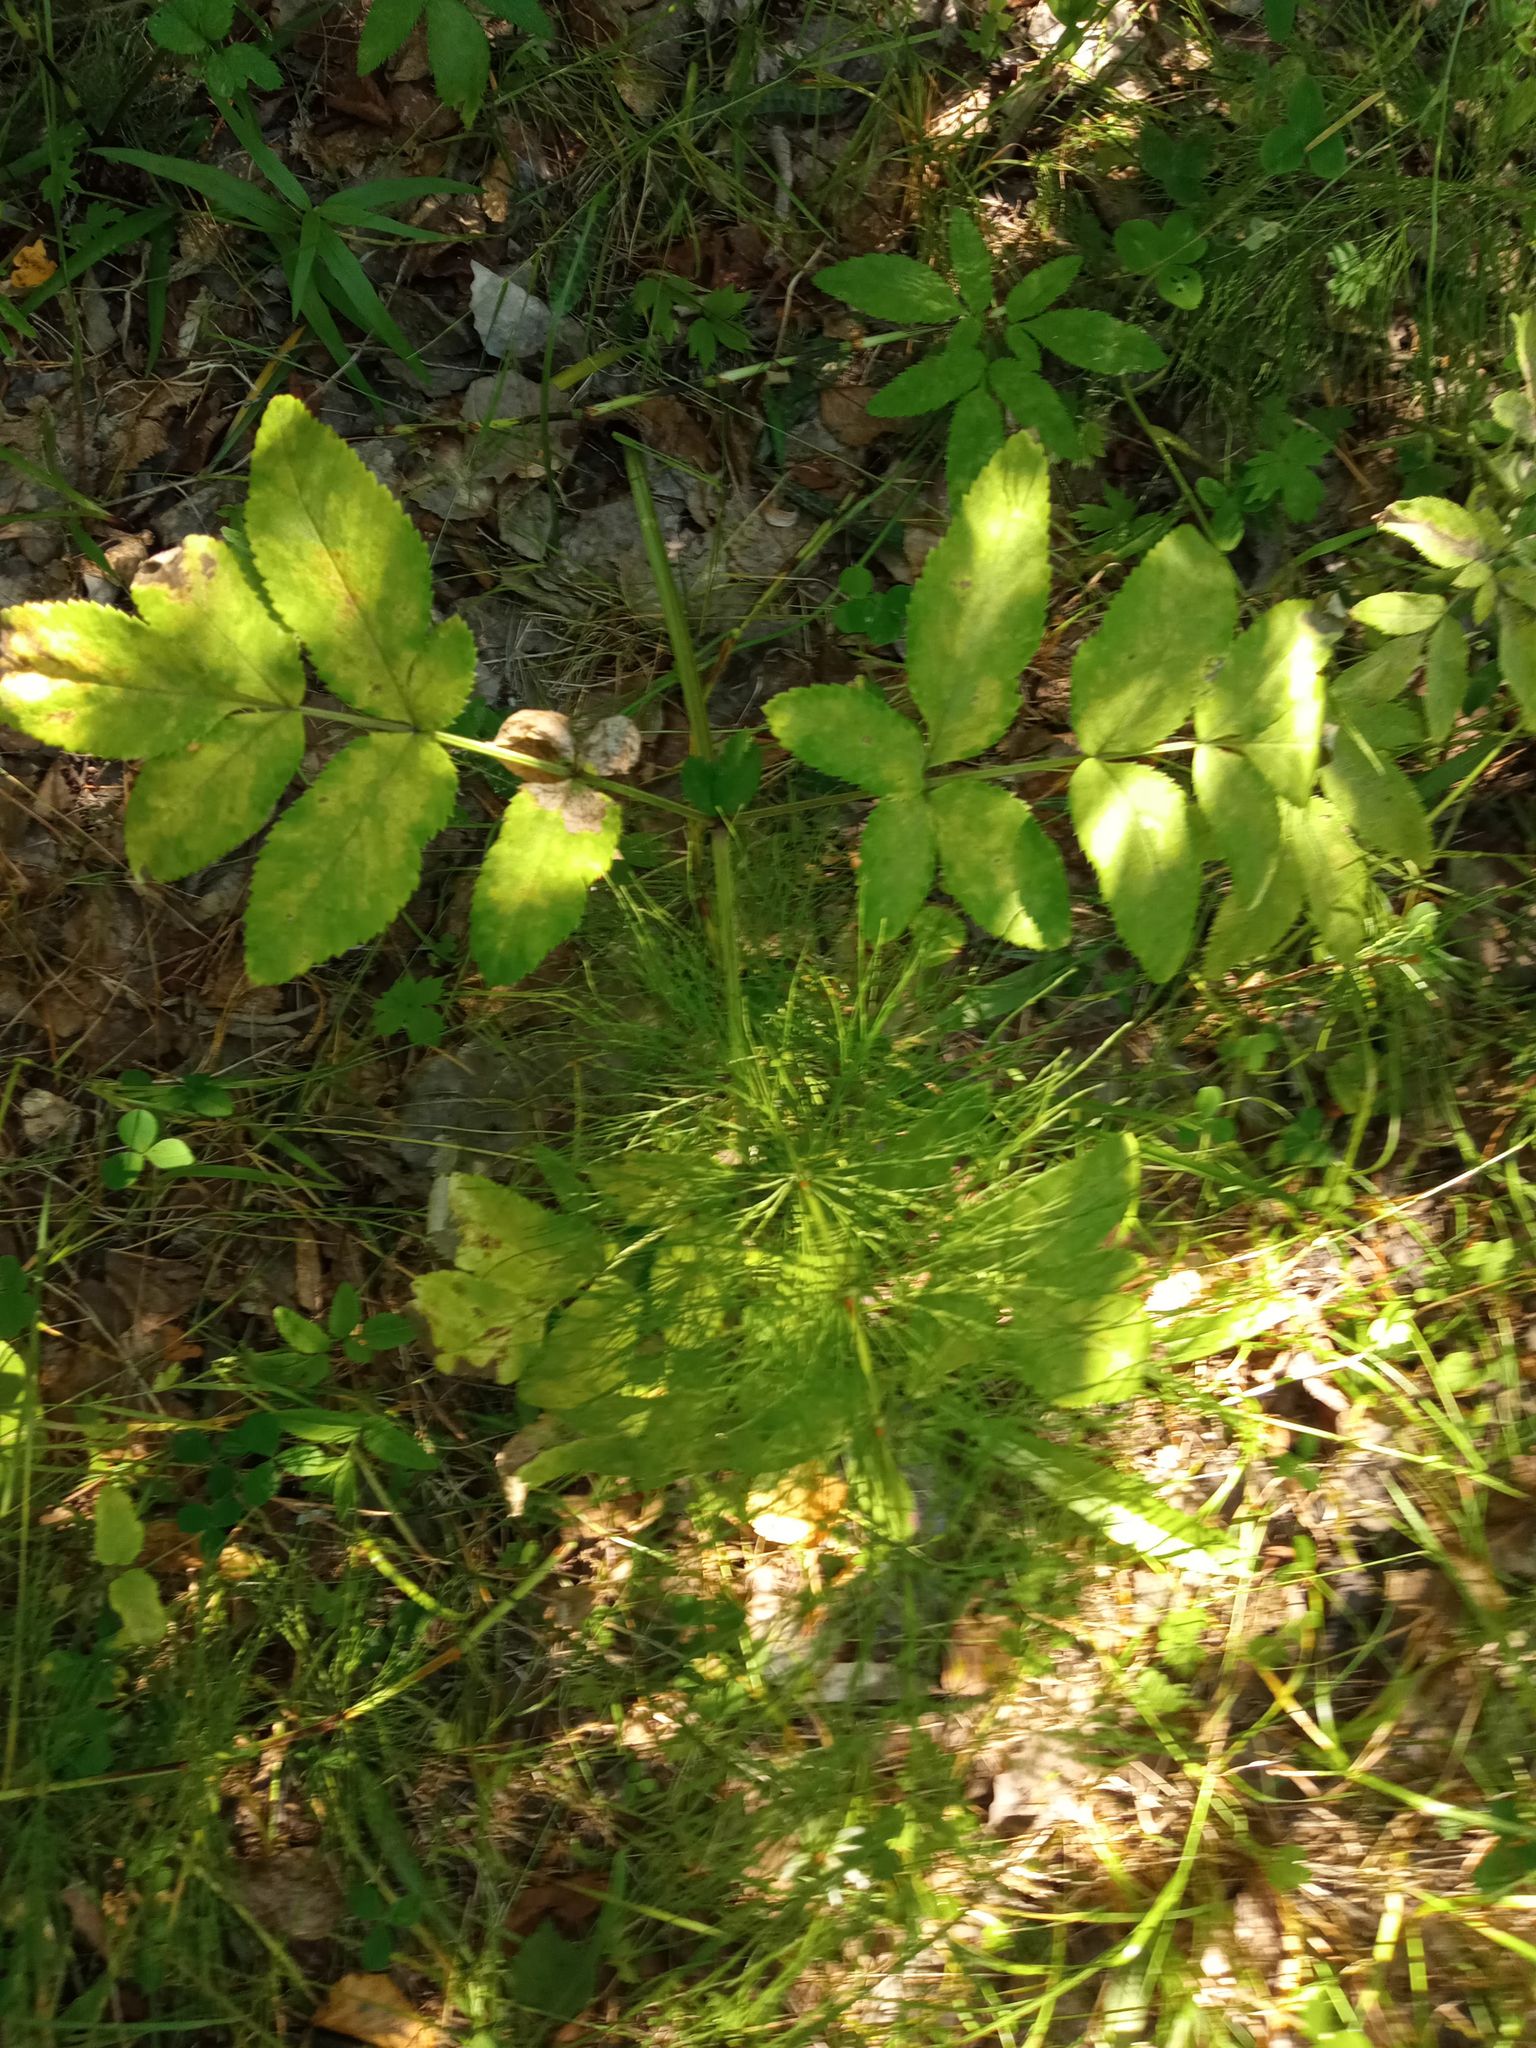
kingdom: Plantae
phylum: Tracheophyta
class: Magnoliopsida
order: Apiales
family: Apiaceae
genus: Angelica
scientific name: Angelica sylvestris
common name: Wild angelica
